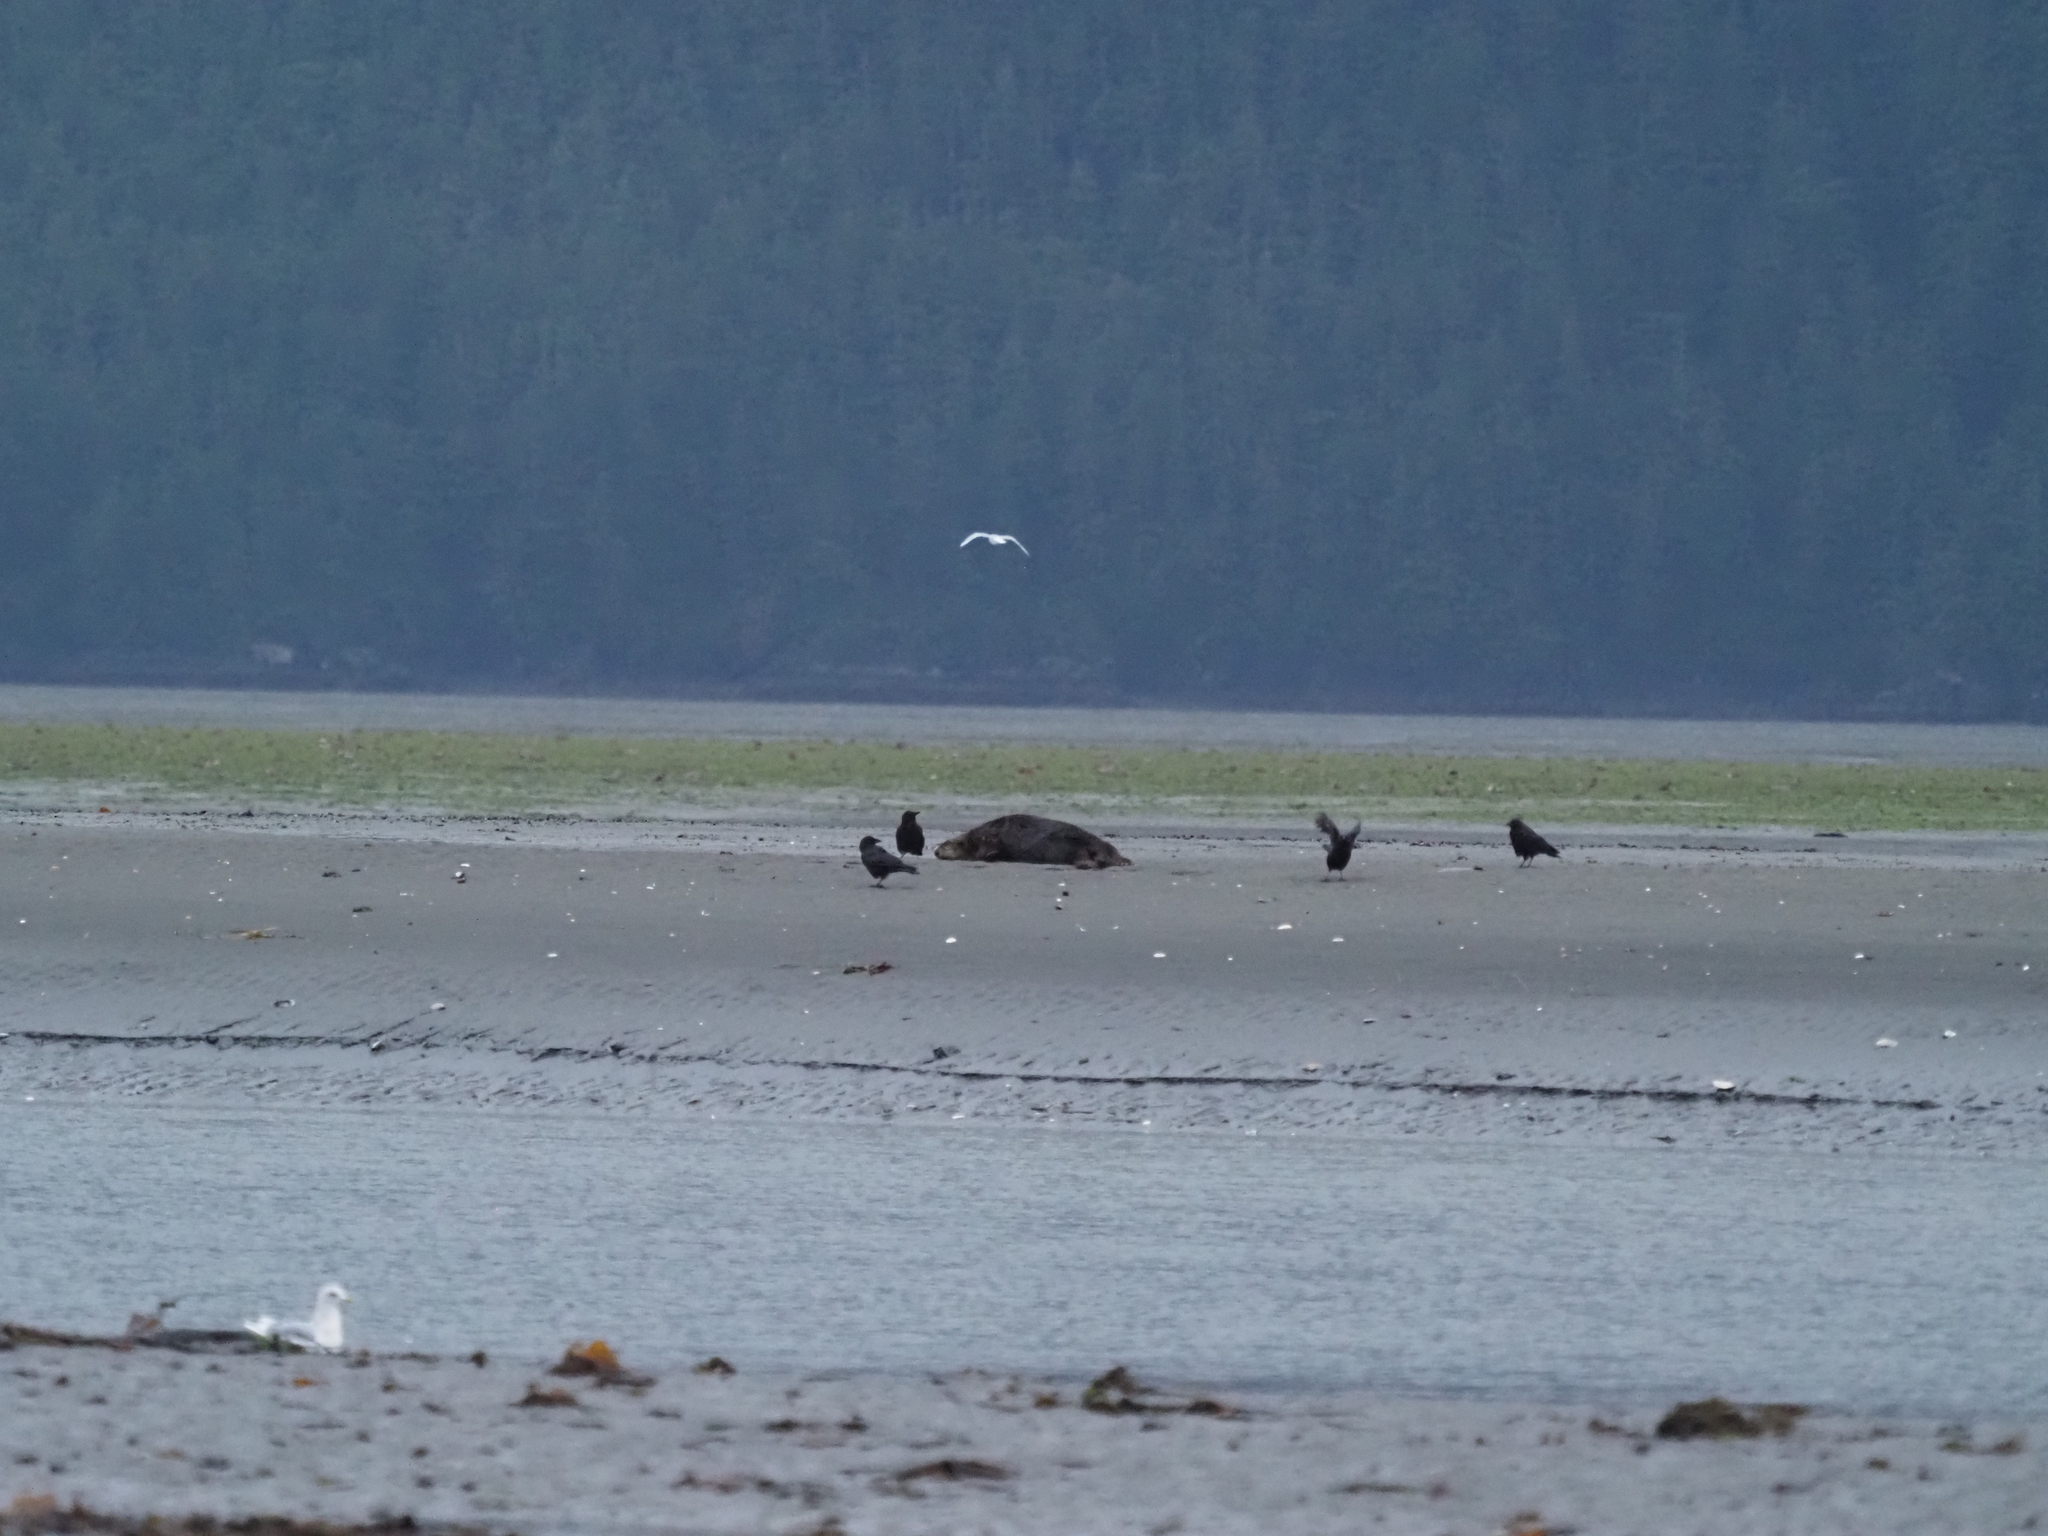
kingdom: Animalia
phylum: Chordata
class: Mammalia
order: Carnivora
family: Mustelidae
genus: Enhydra
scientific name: Enhydra lutris
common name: Sea otter
